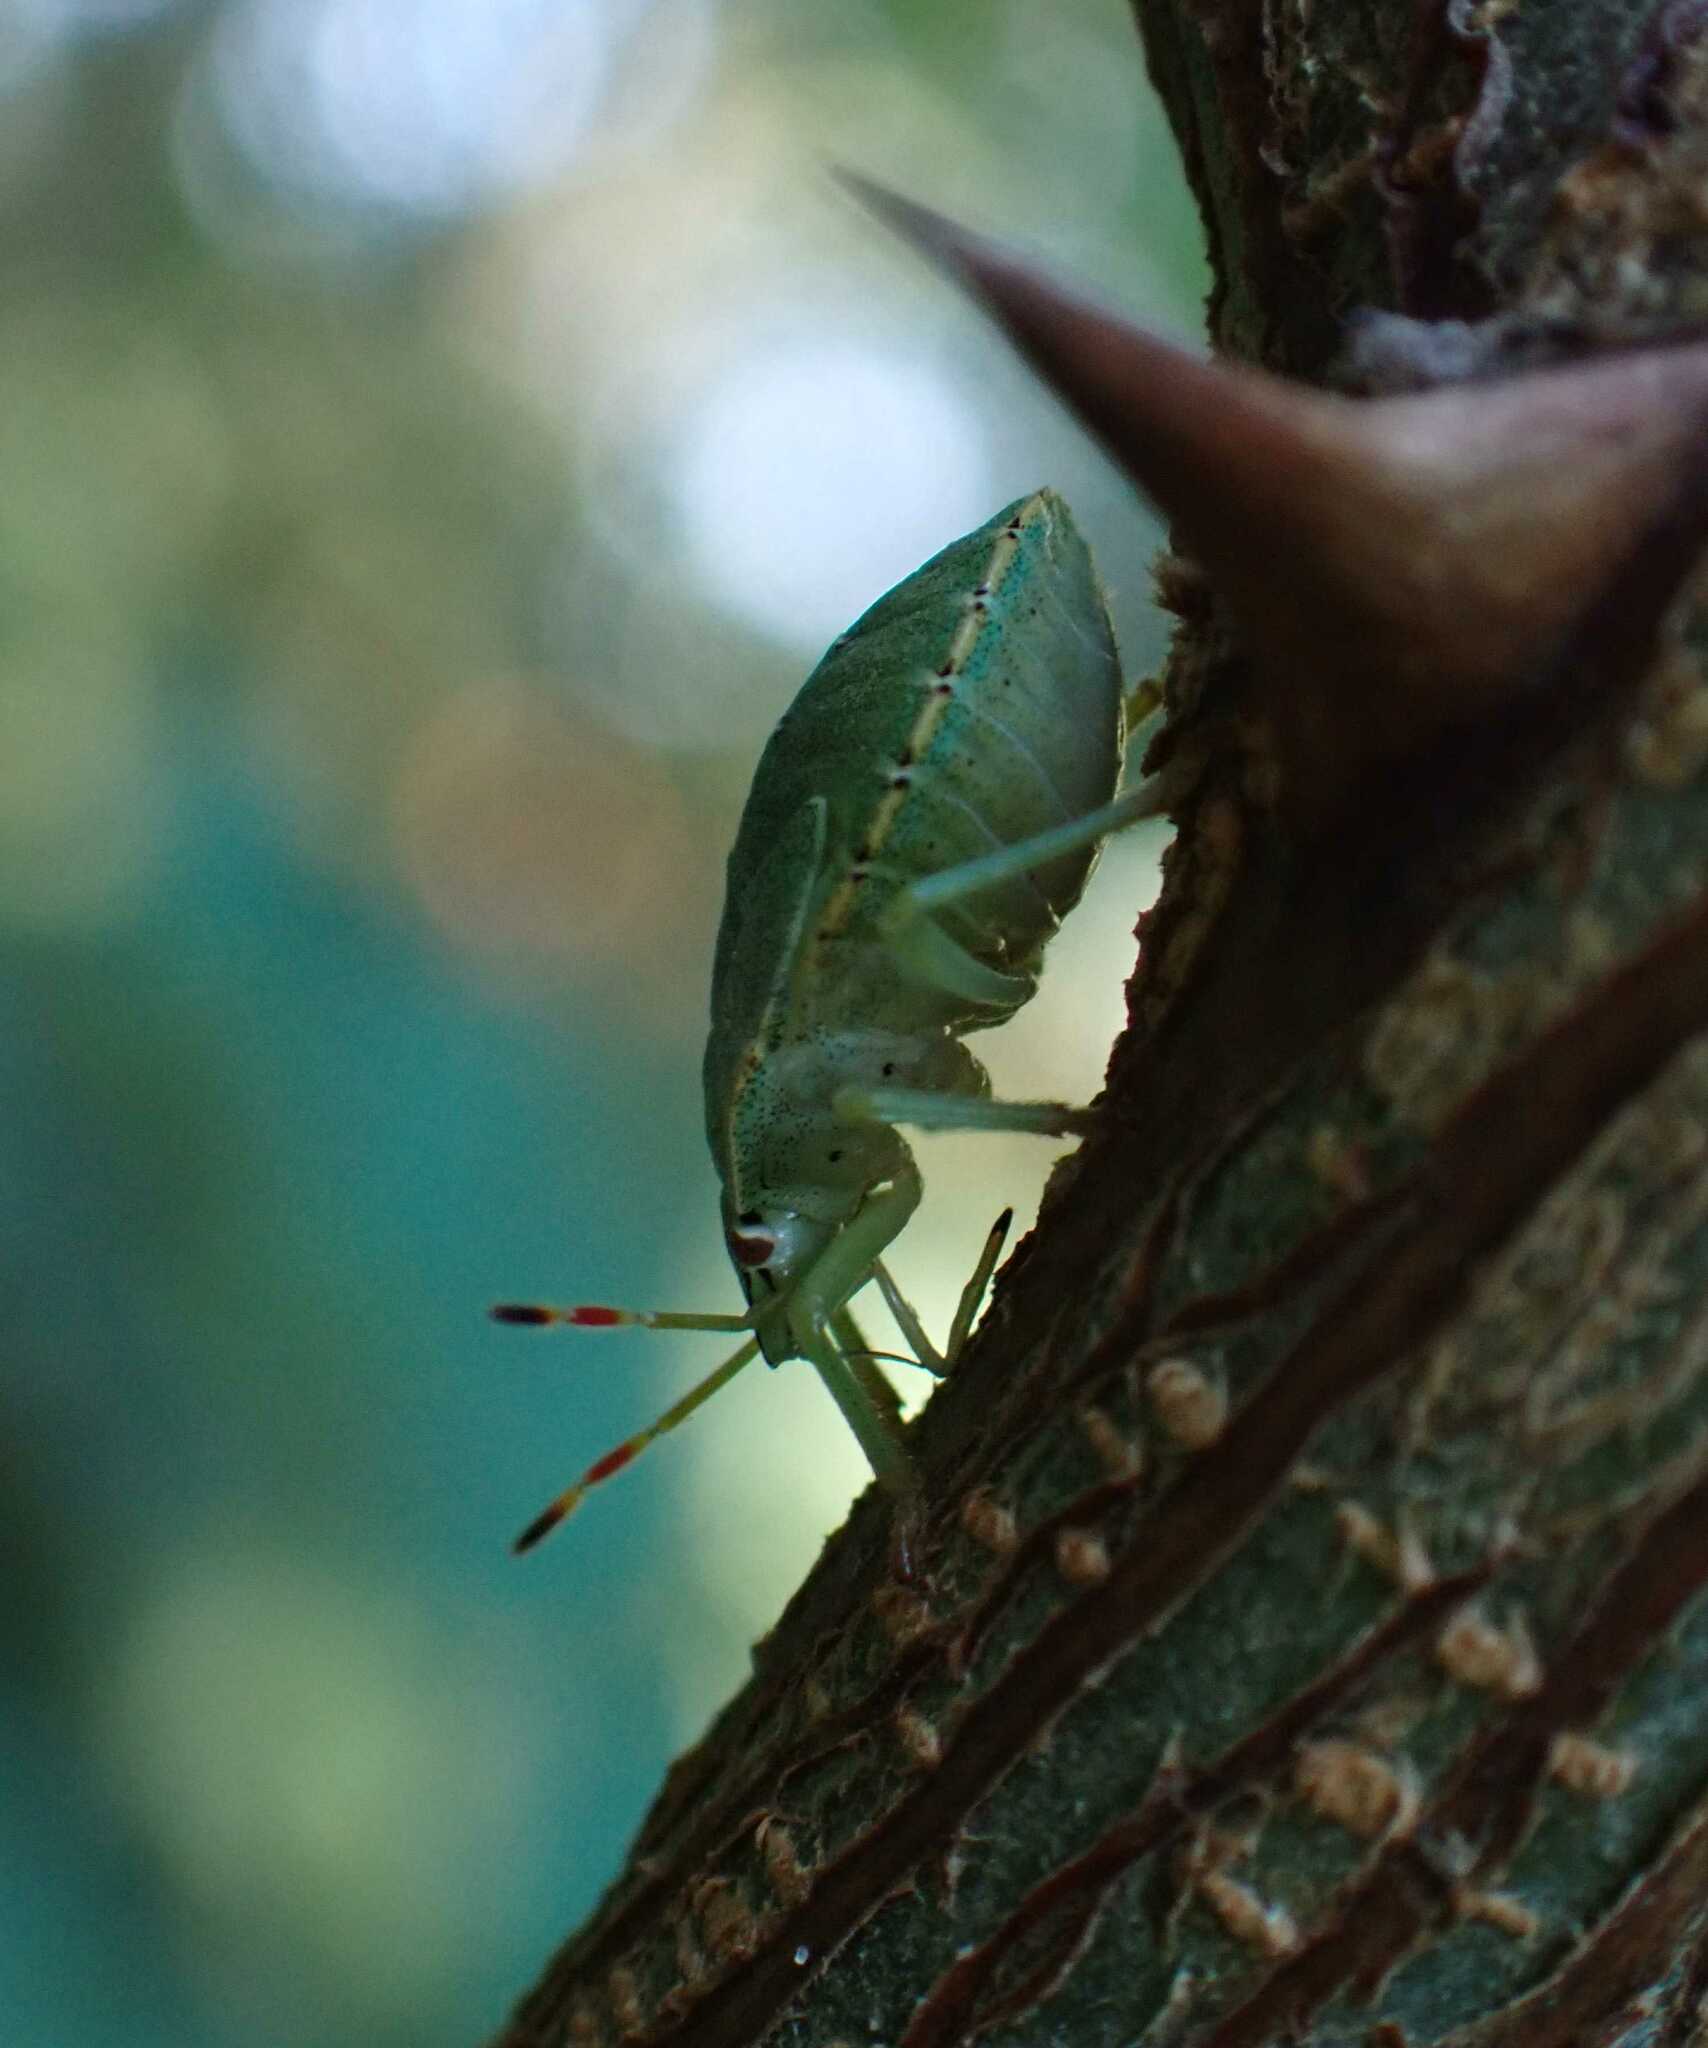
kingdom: Animalia
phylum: Arthropoda
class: Insecta
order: Hemiptera
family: Pentatomidae
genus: Palomena
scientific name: Palomena prasina
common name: Green shieldbug
